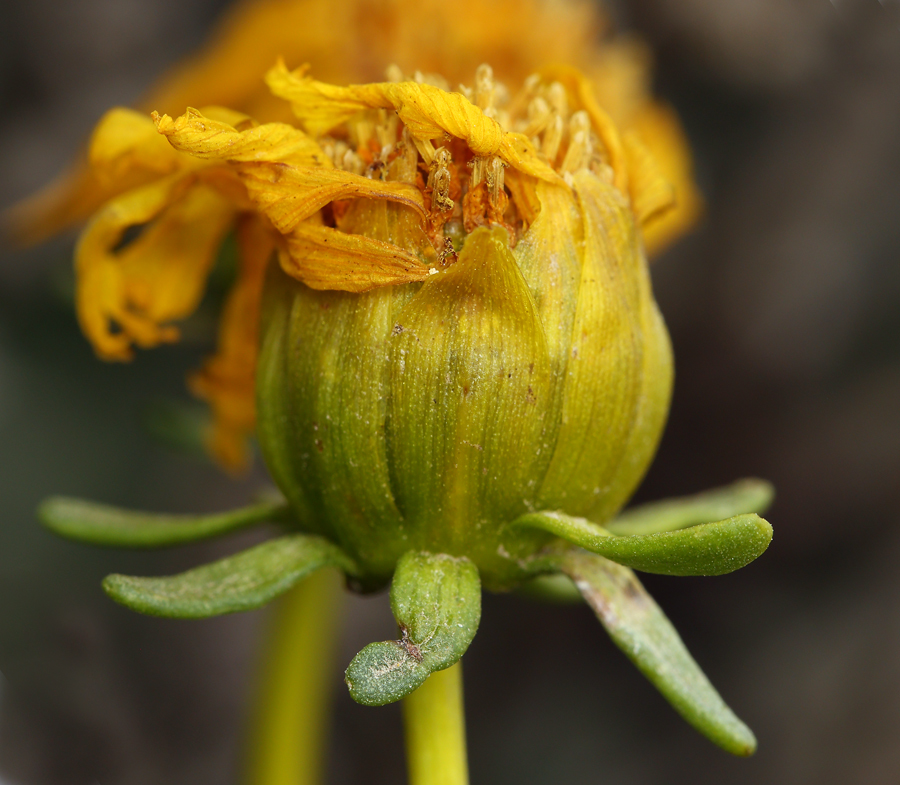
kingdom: Plantae
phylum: Tracheophyta
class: Magnoliopsida
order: Asterales
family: Asteraceae
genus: Coreopsis
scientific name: Coreopsis gigantea
